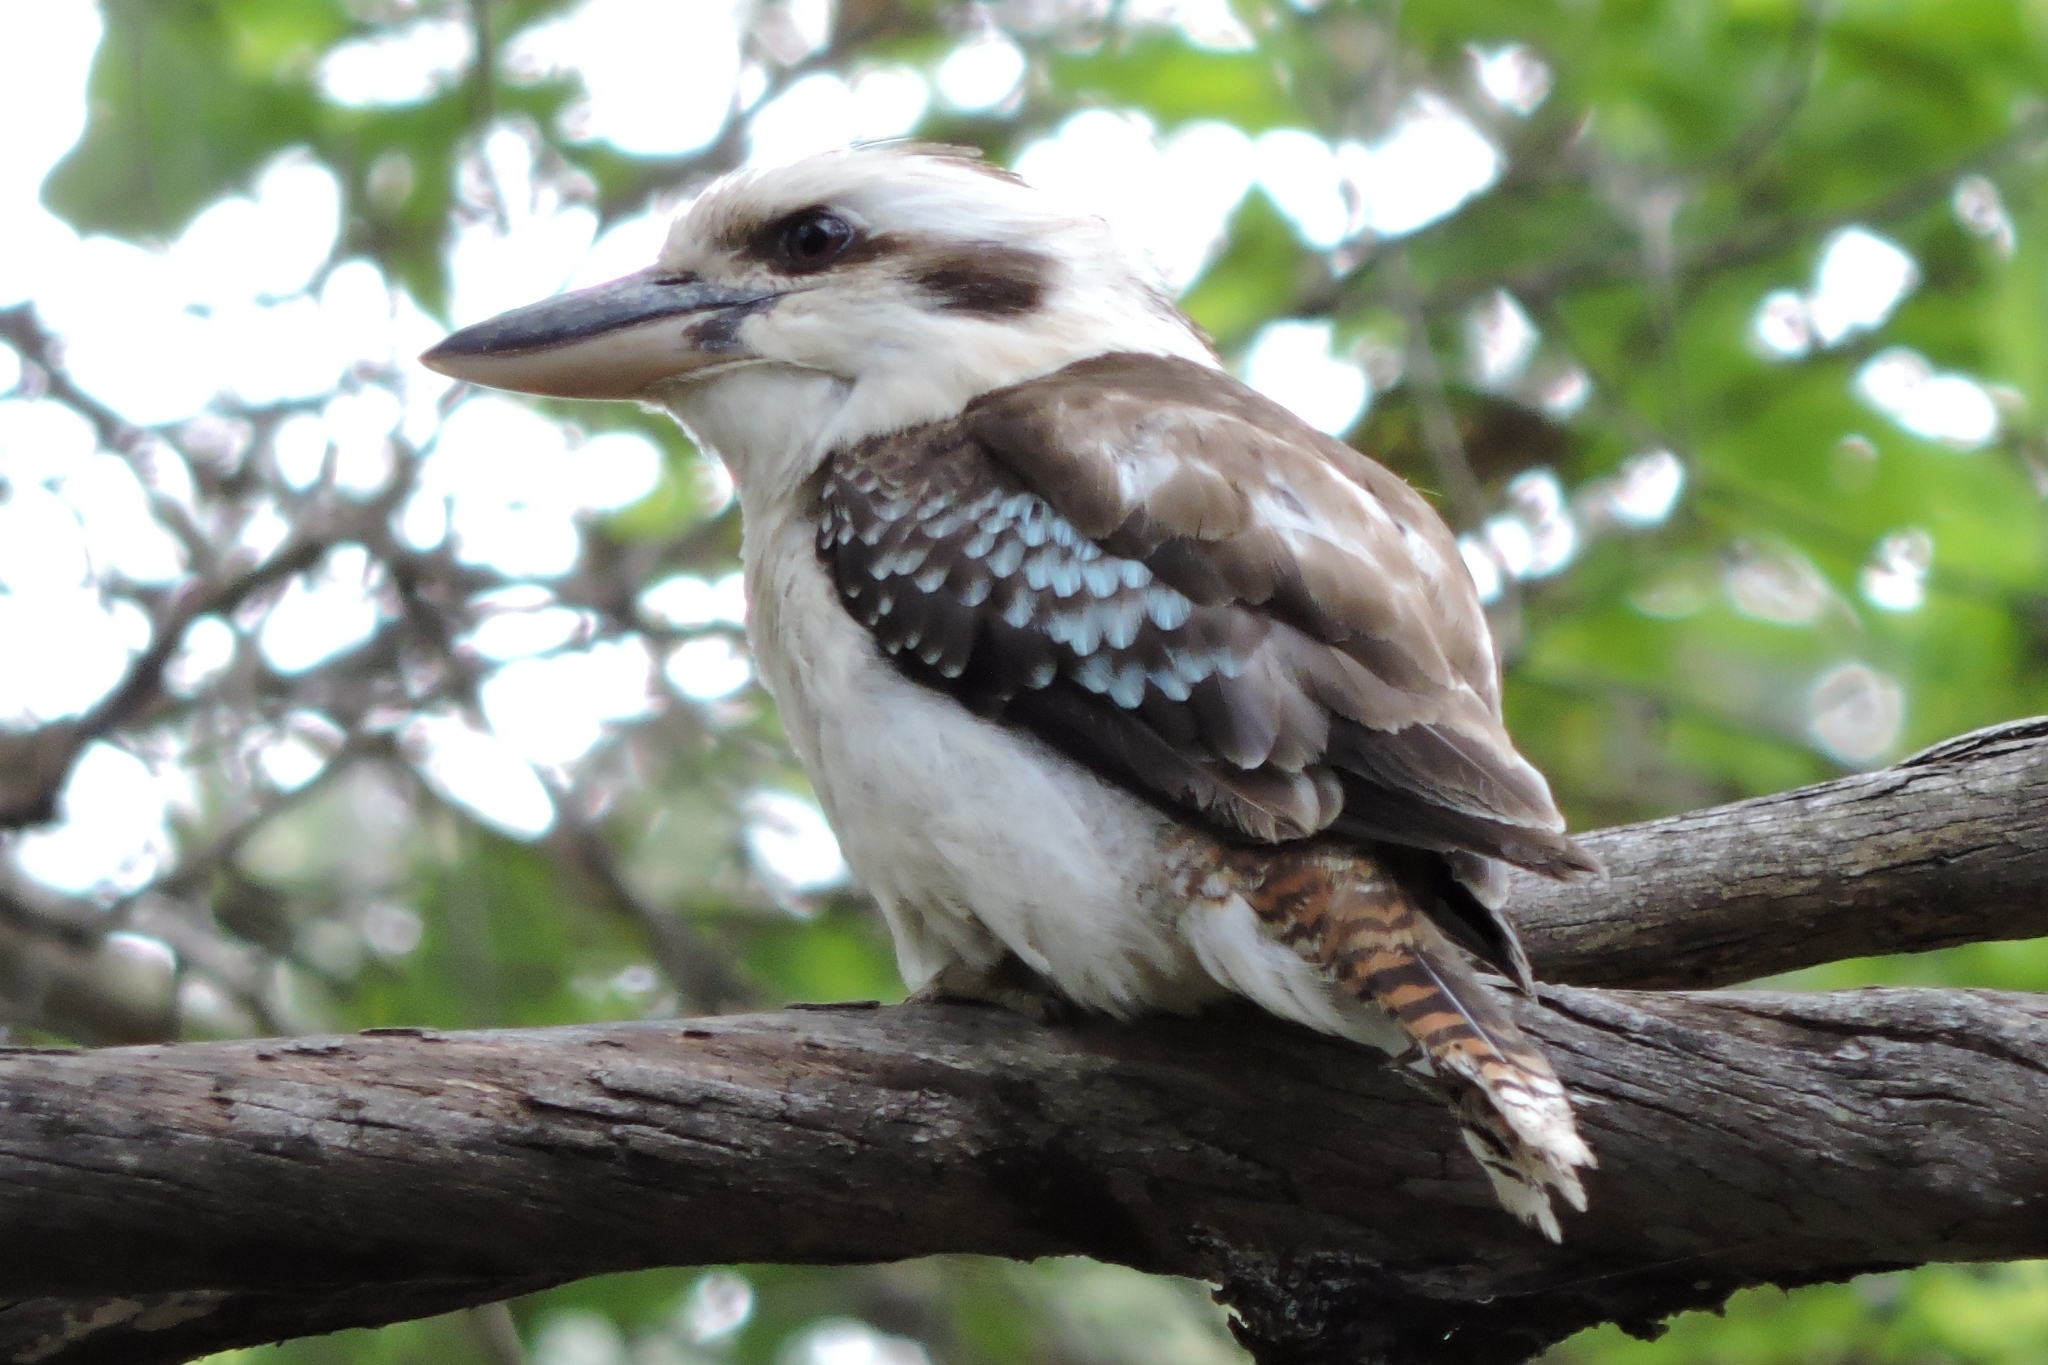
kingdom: Animalia
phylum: Chordata
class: Aves
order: Coraciiformes
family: Alcedinidae
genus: Dacelo
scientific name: Dacelo novaeguineae
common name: Laughing kookaburra
